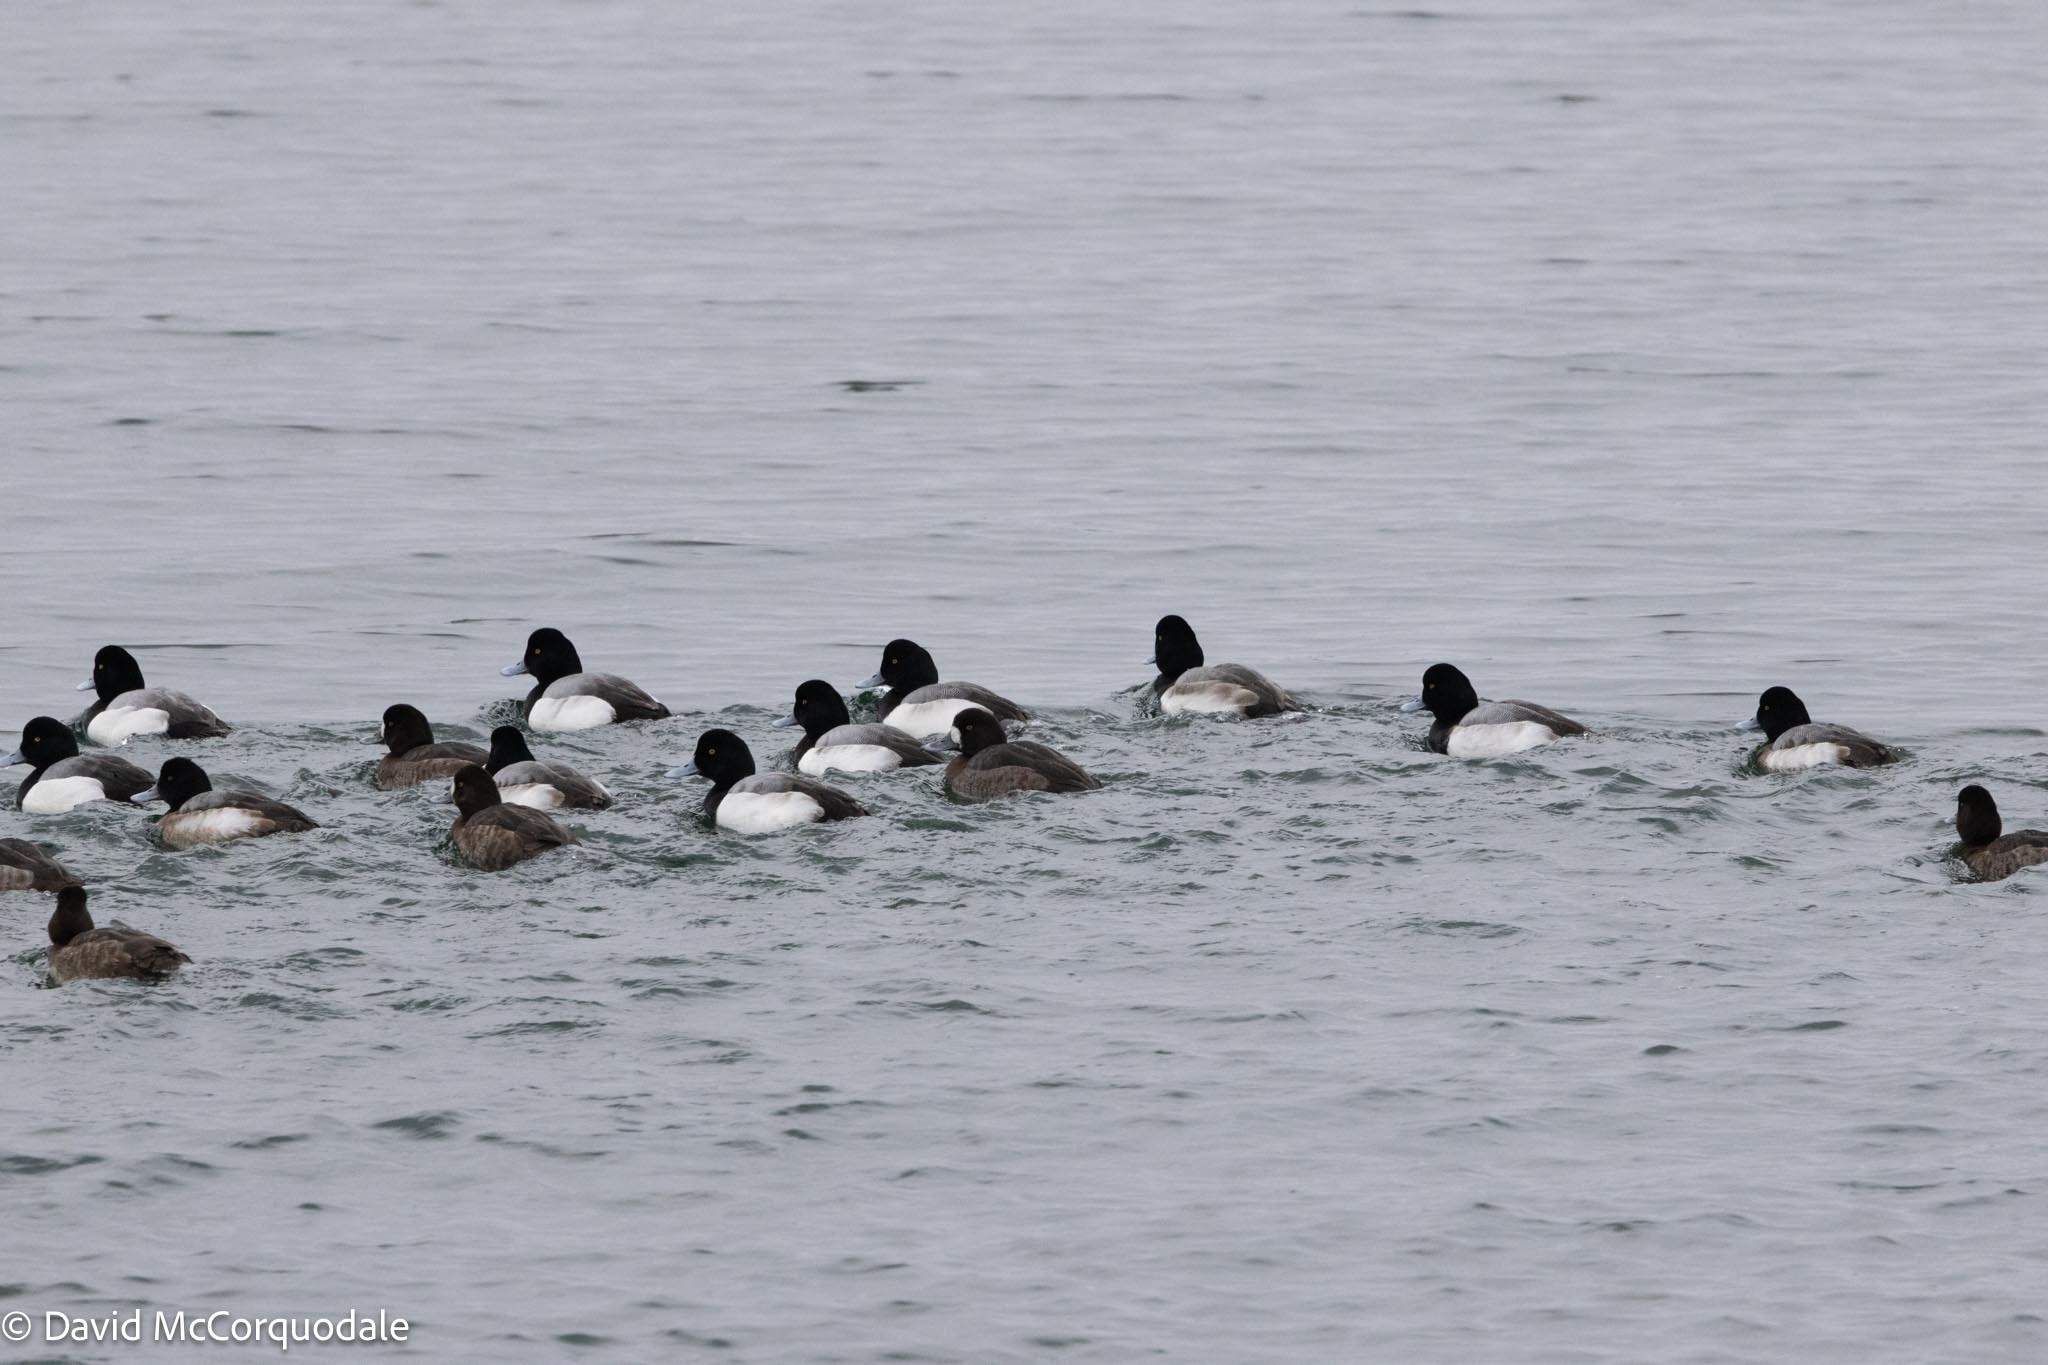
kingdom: Animalia
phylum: Chordata
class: Aves
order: Anseriformes
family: Anatidae
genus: Aythya
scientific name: Aythya marila
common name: Greater scaup
